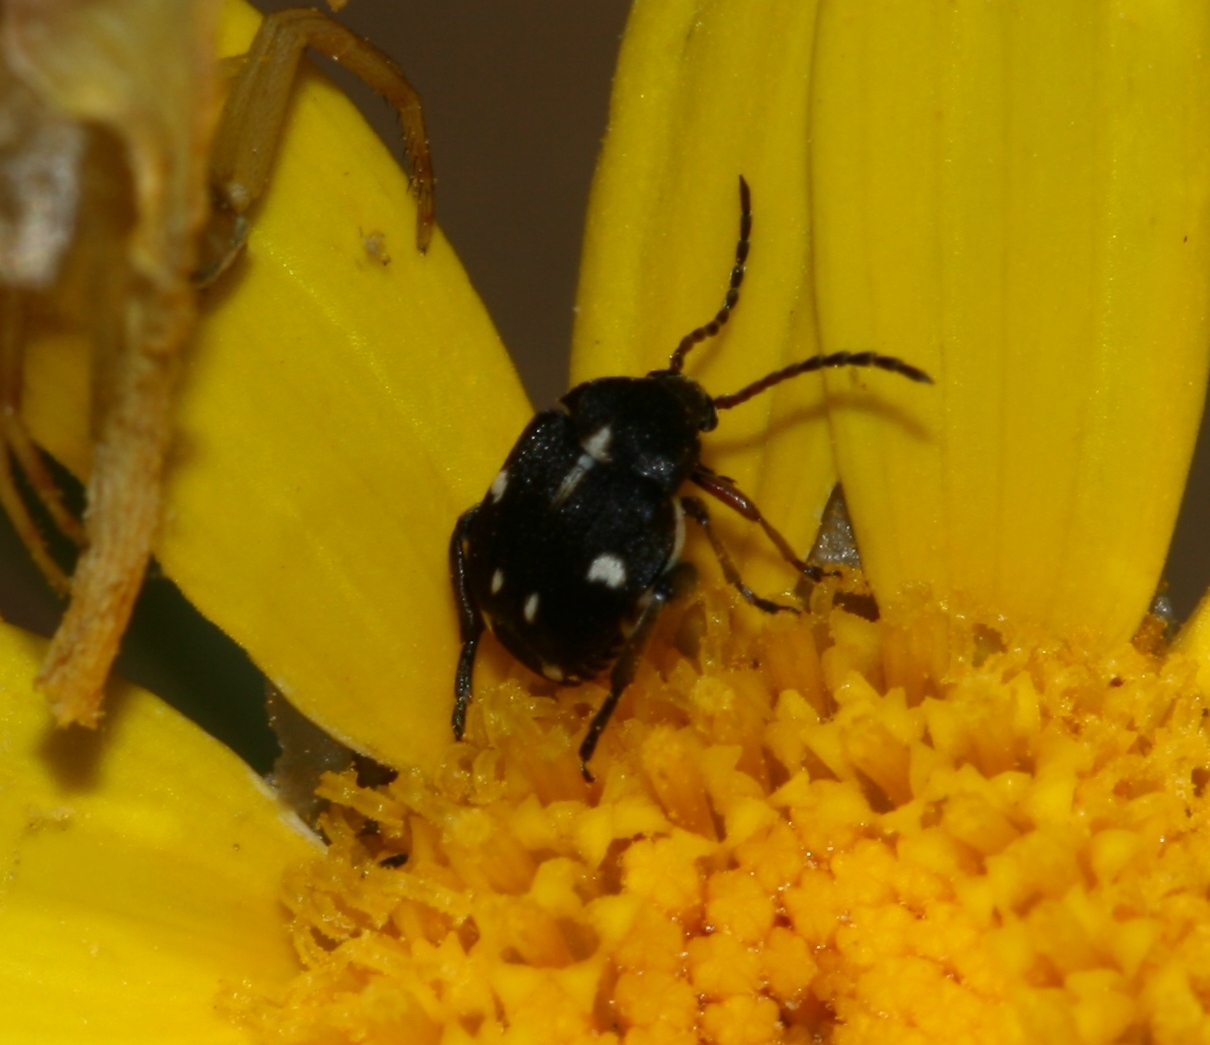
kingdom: Animalia
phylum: Arthropoda
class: Insecta
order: Coleoptera
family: Chrysomelidae
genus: Serratobruchidius
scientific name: Serratobruchidius
